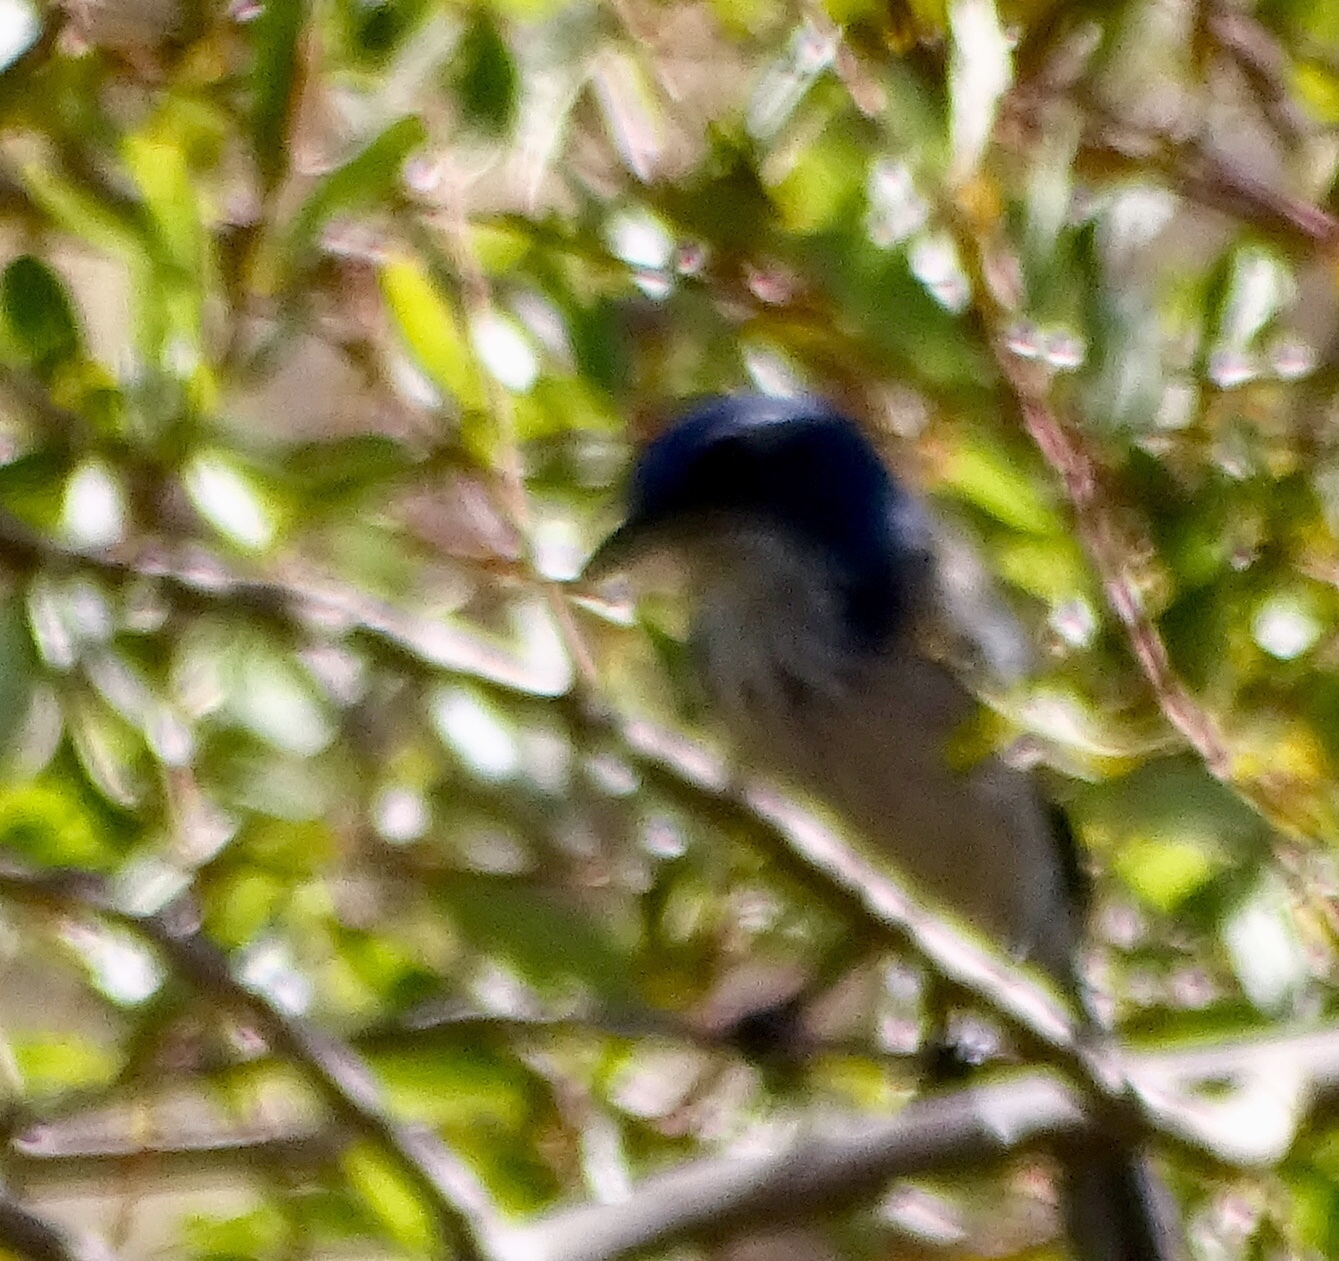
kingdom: Animalia
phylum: Chordata
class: Aves
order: Passeriformes
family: Corvidae
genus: Aphelocoma
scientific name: Aphelocoma californica
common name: California scrub-jay
